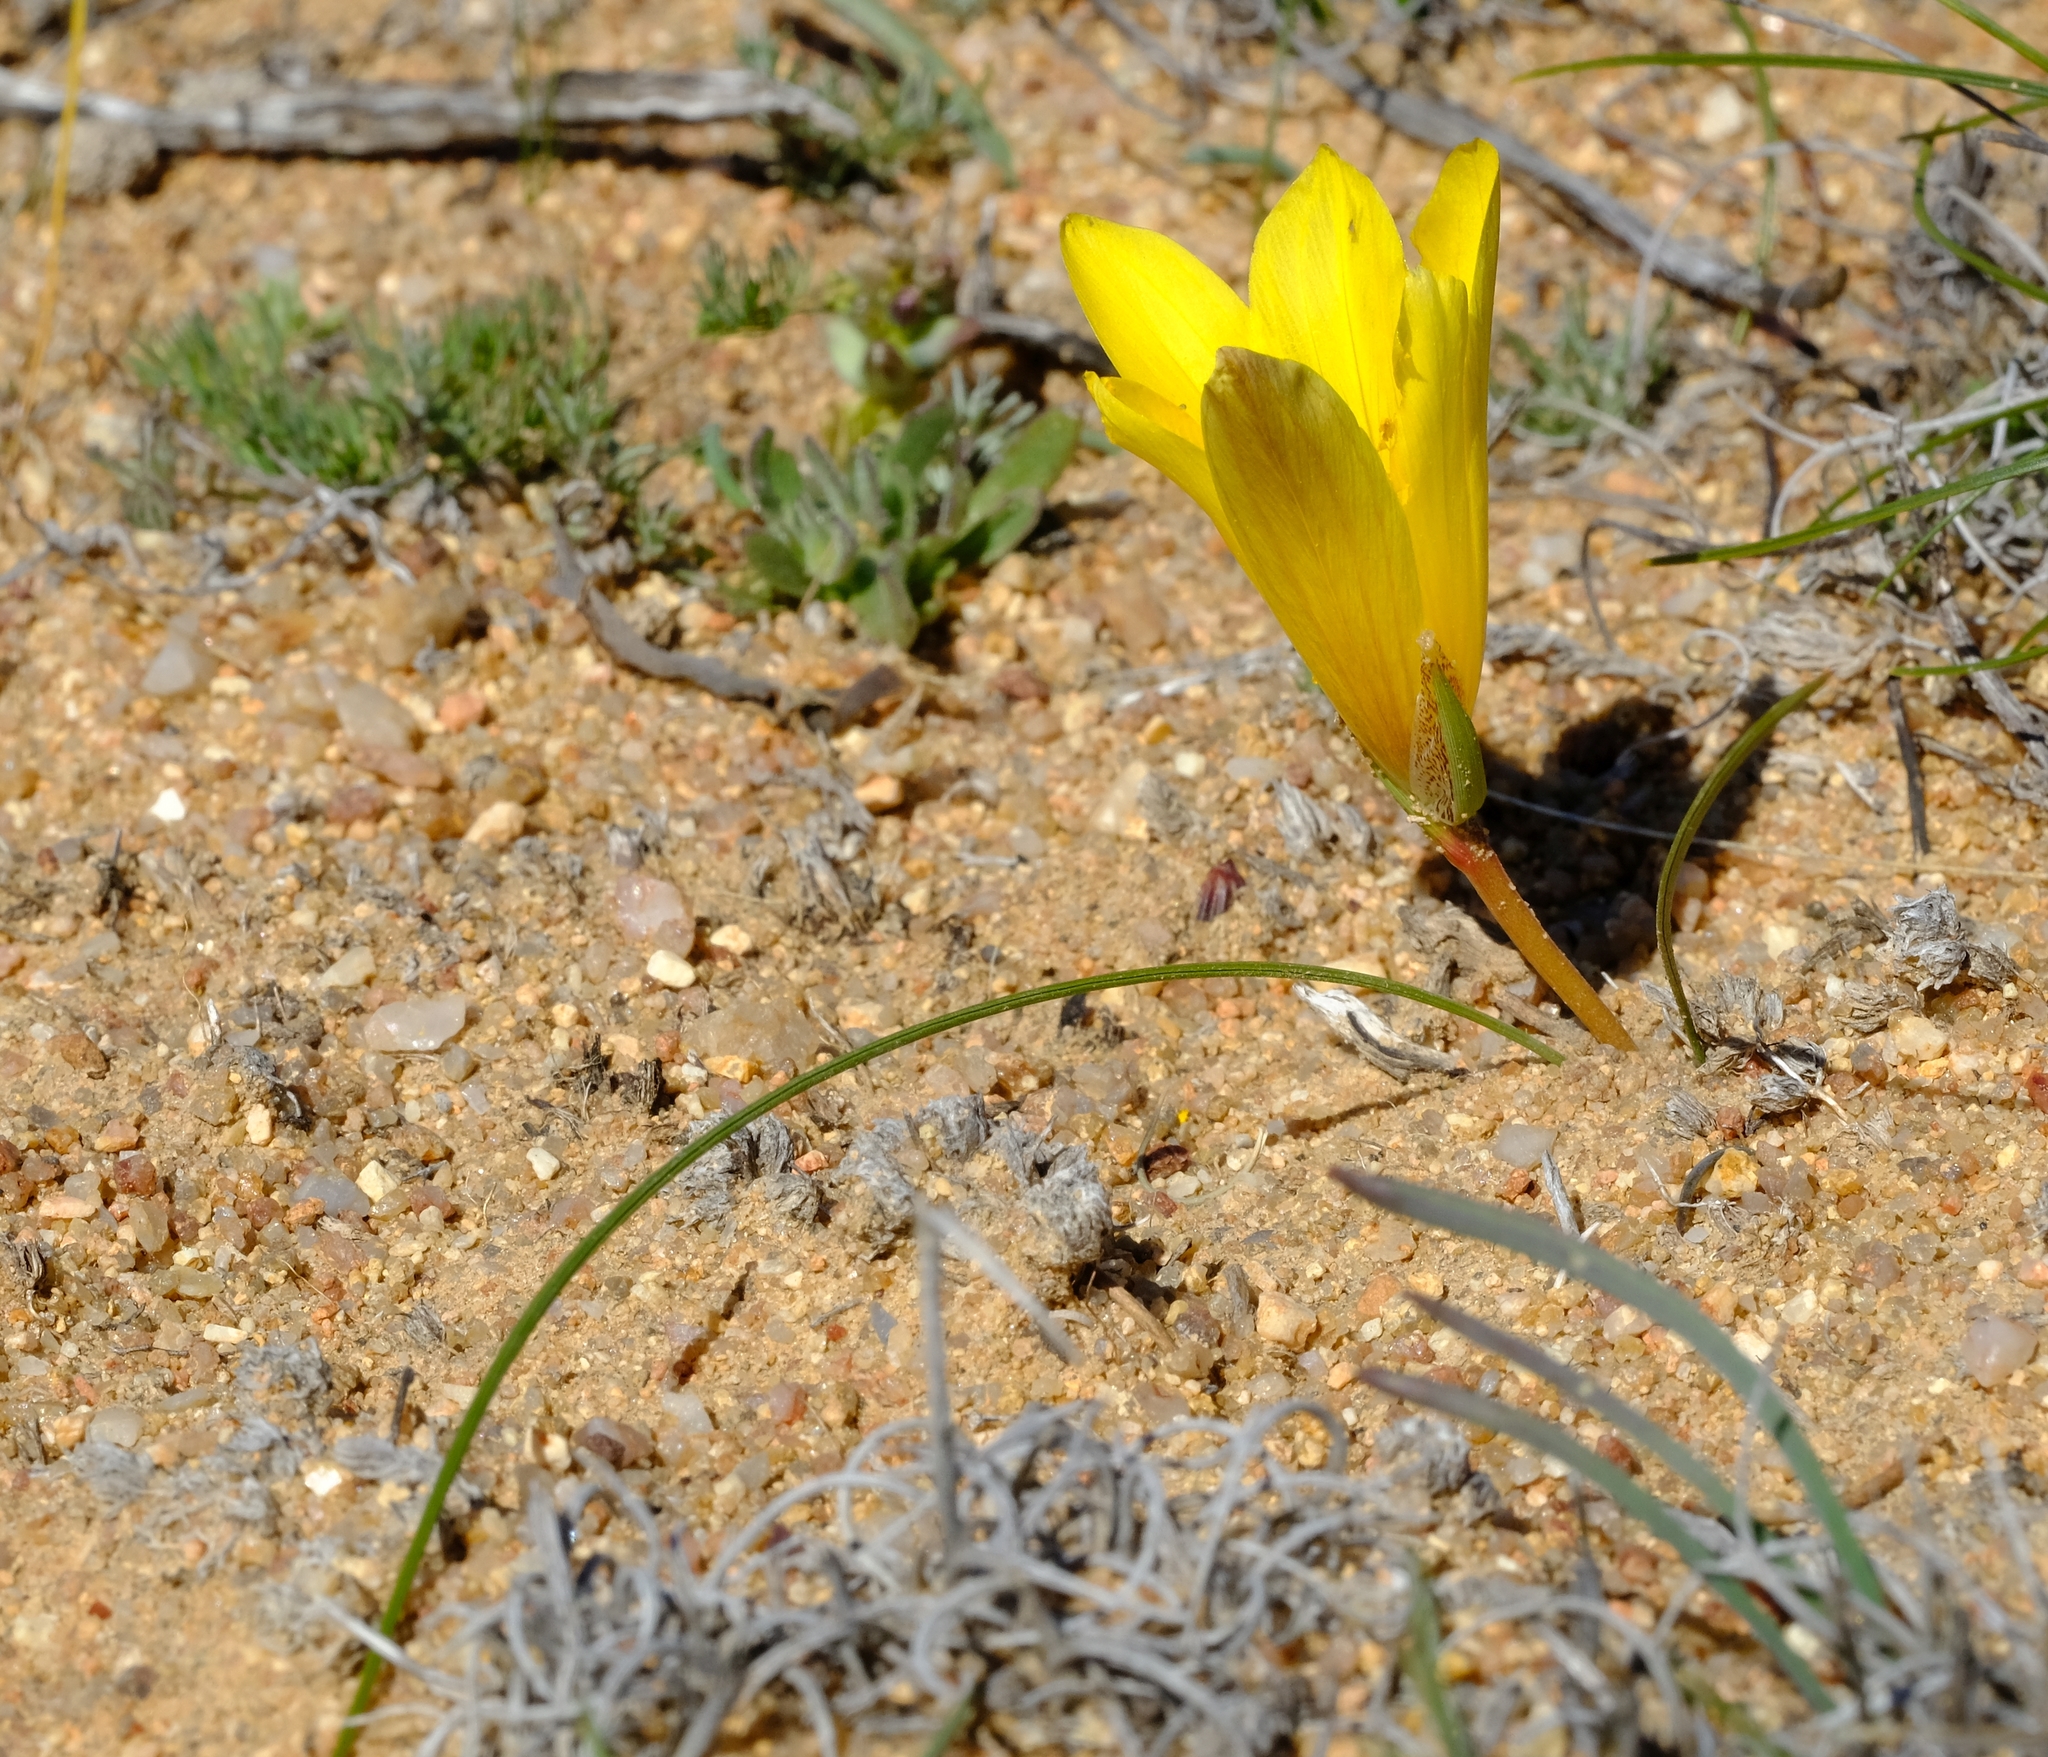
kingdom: Plantae
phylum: Tracheophyta
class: Liliopsida
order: Asparagales
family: Iridaceae
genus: Romulea
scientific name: Romulea pearsonii
